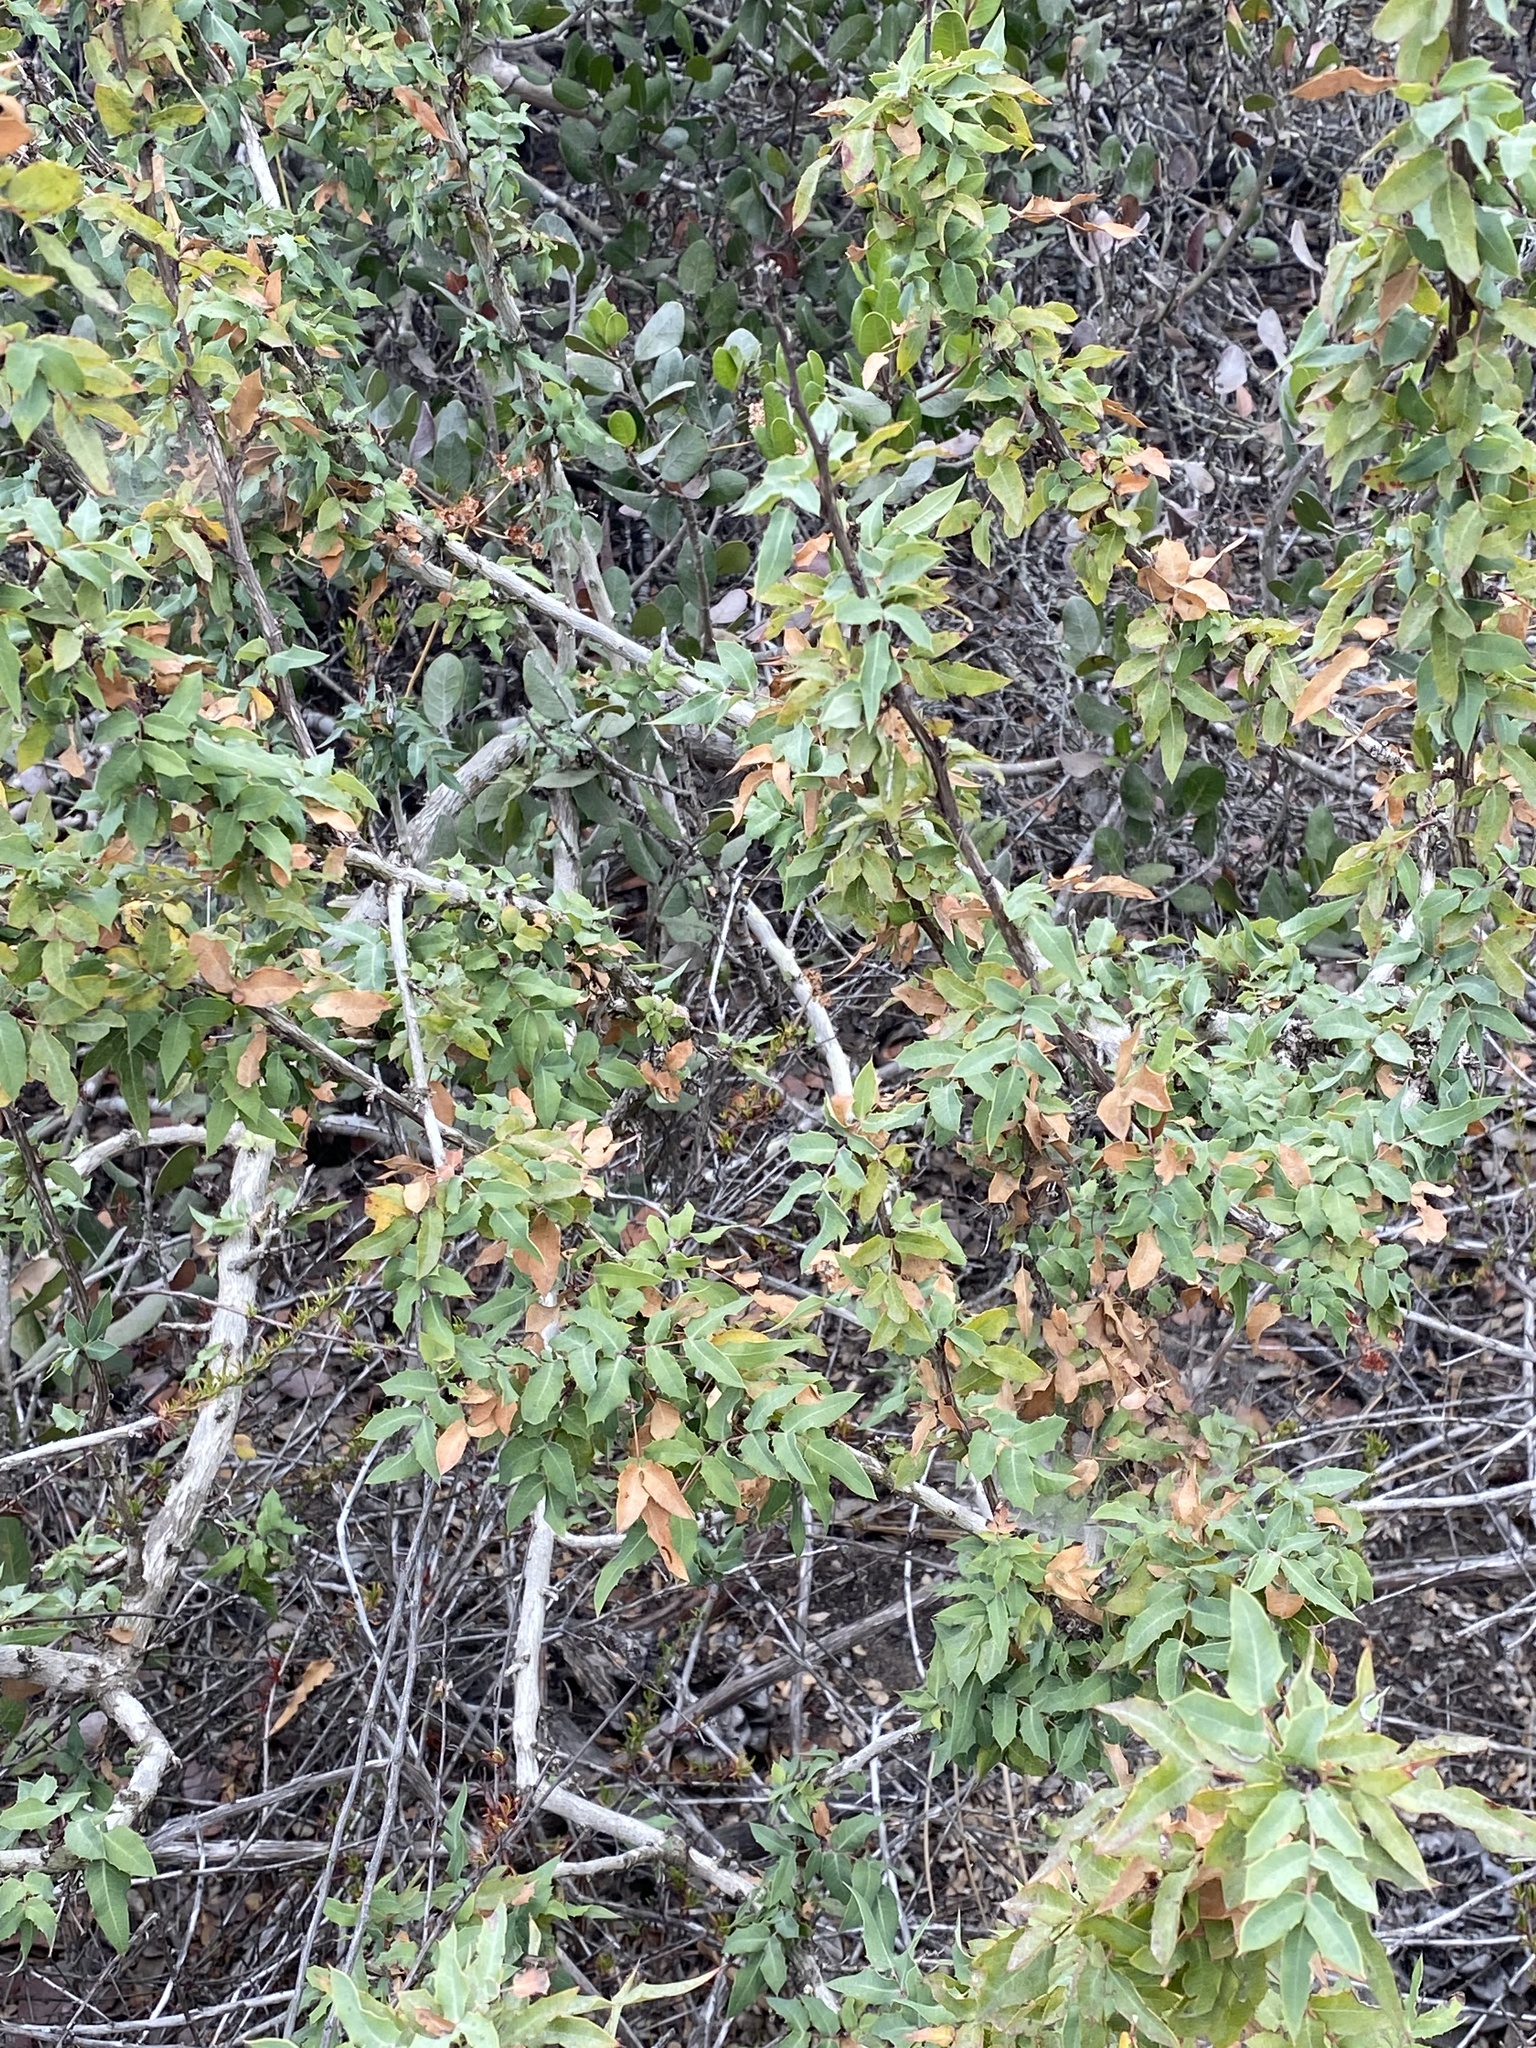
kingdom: Plantae
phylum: Tracheophyta
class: Magnoliopsida
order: Ranunculales
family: Berberidaceae
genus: Alloberberis
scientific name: Alloberberis nevinii
